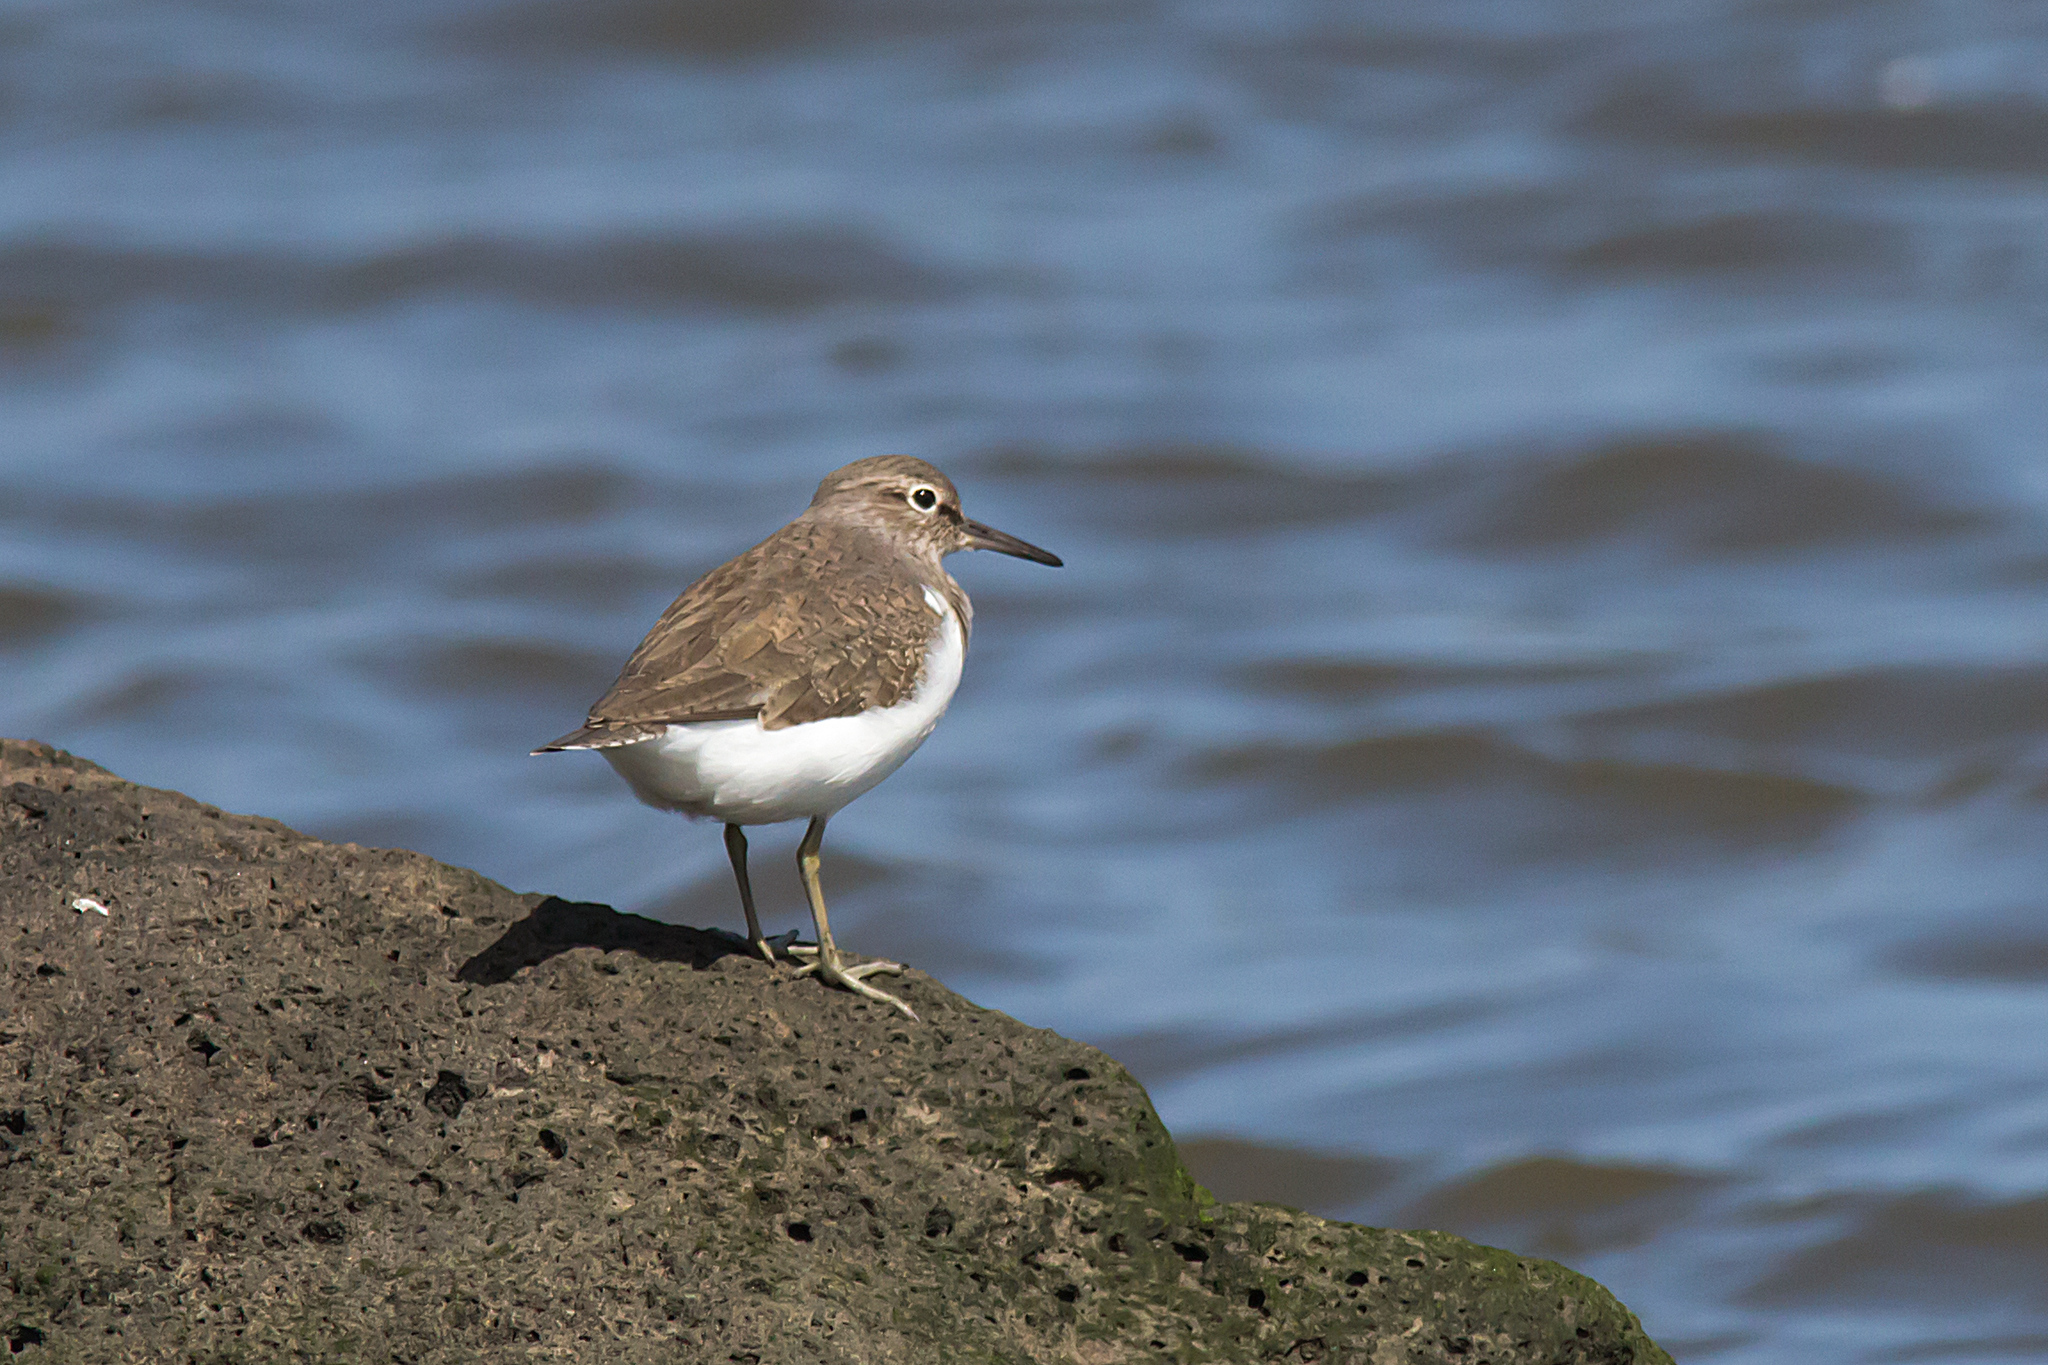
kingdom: Animalia
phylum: Chordata
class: Aves
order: Charadriiformes
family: Scolopacidae
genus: Actitis
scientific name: Actitis hypoleucos
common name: Common sandpiper
